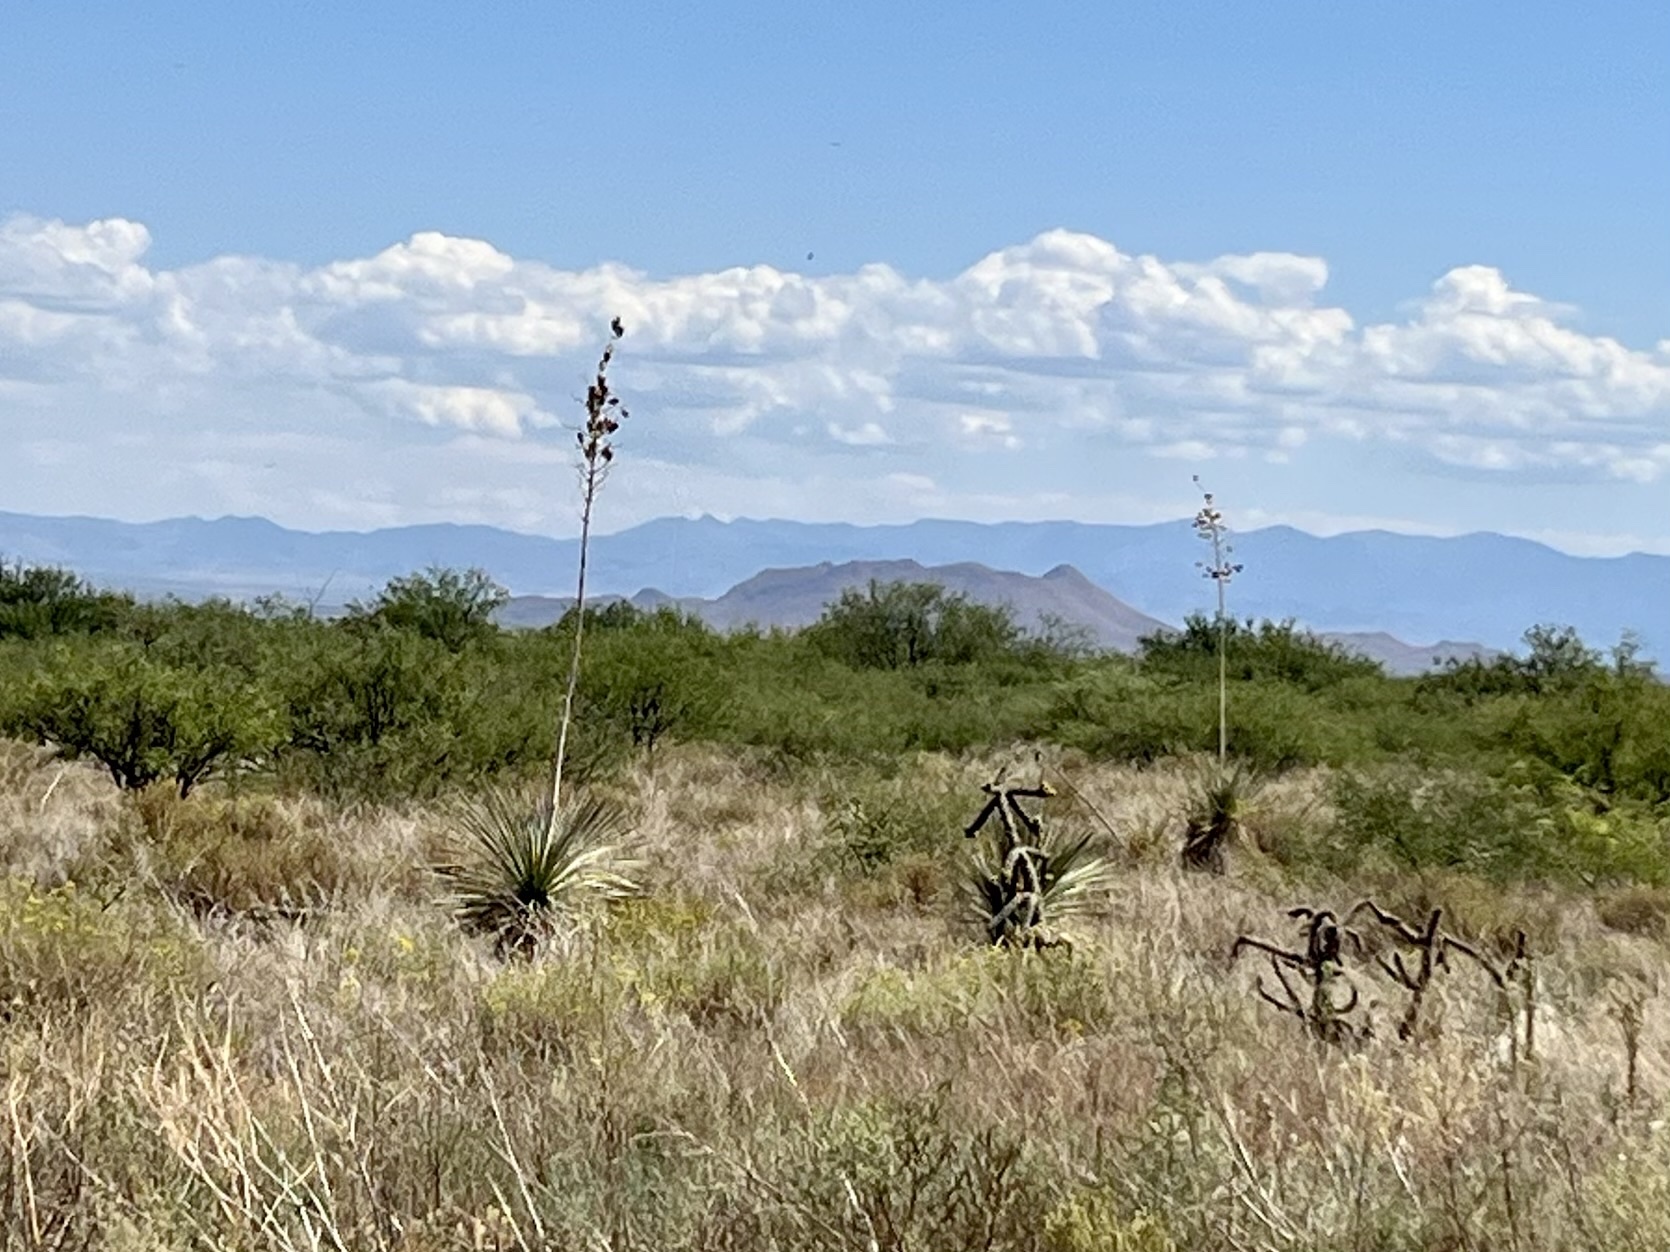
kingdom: Plantae
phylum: Tracheophyta
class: Liliopsida
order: Asparagales
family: Asparagaceae
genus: Yucca
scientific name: Yucca elata
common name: Palmella
